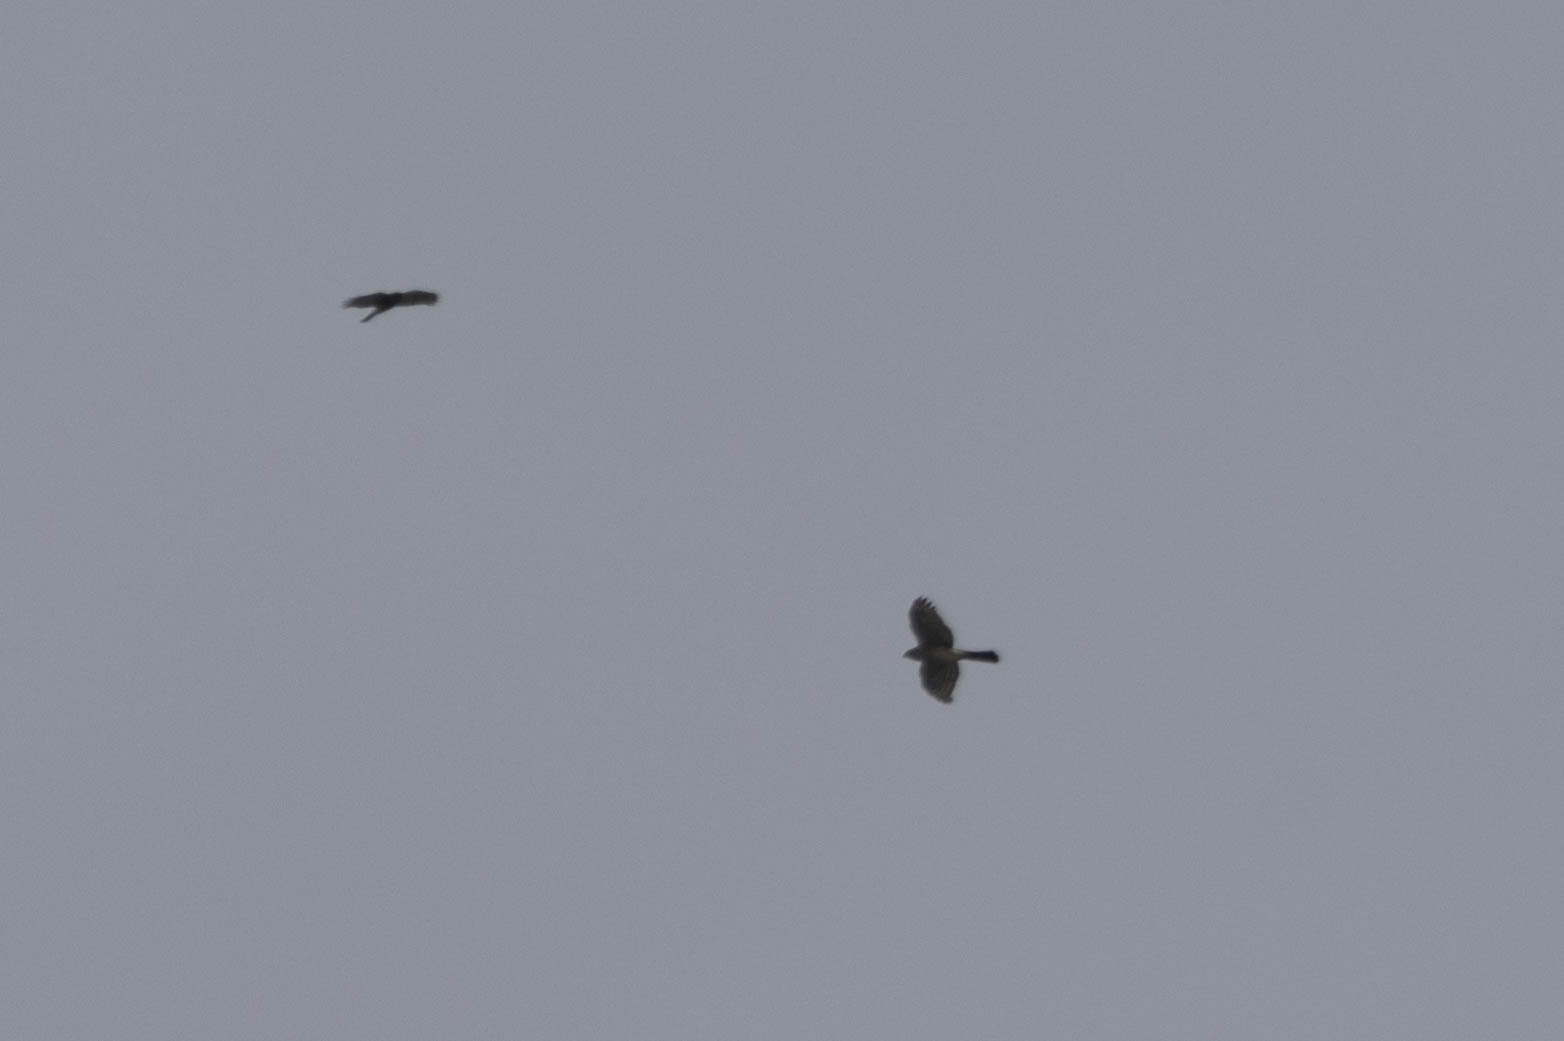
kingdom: Animalia
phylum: Chordata
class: Aves
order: Accipitriformes
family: Accipitridae
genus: Accipiter
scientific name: Accipiter striatus
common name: Sharp-shinned hawk
